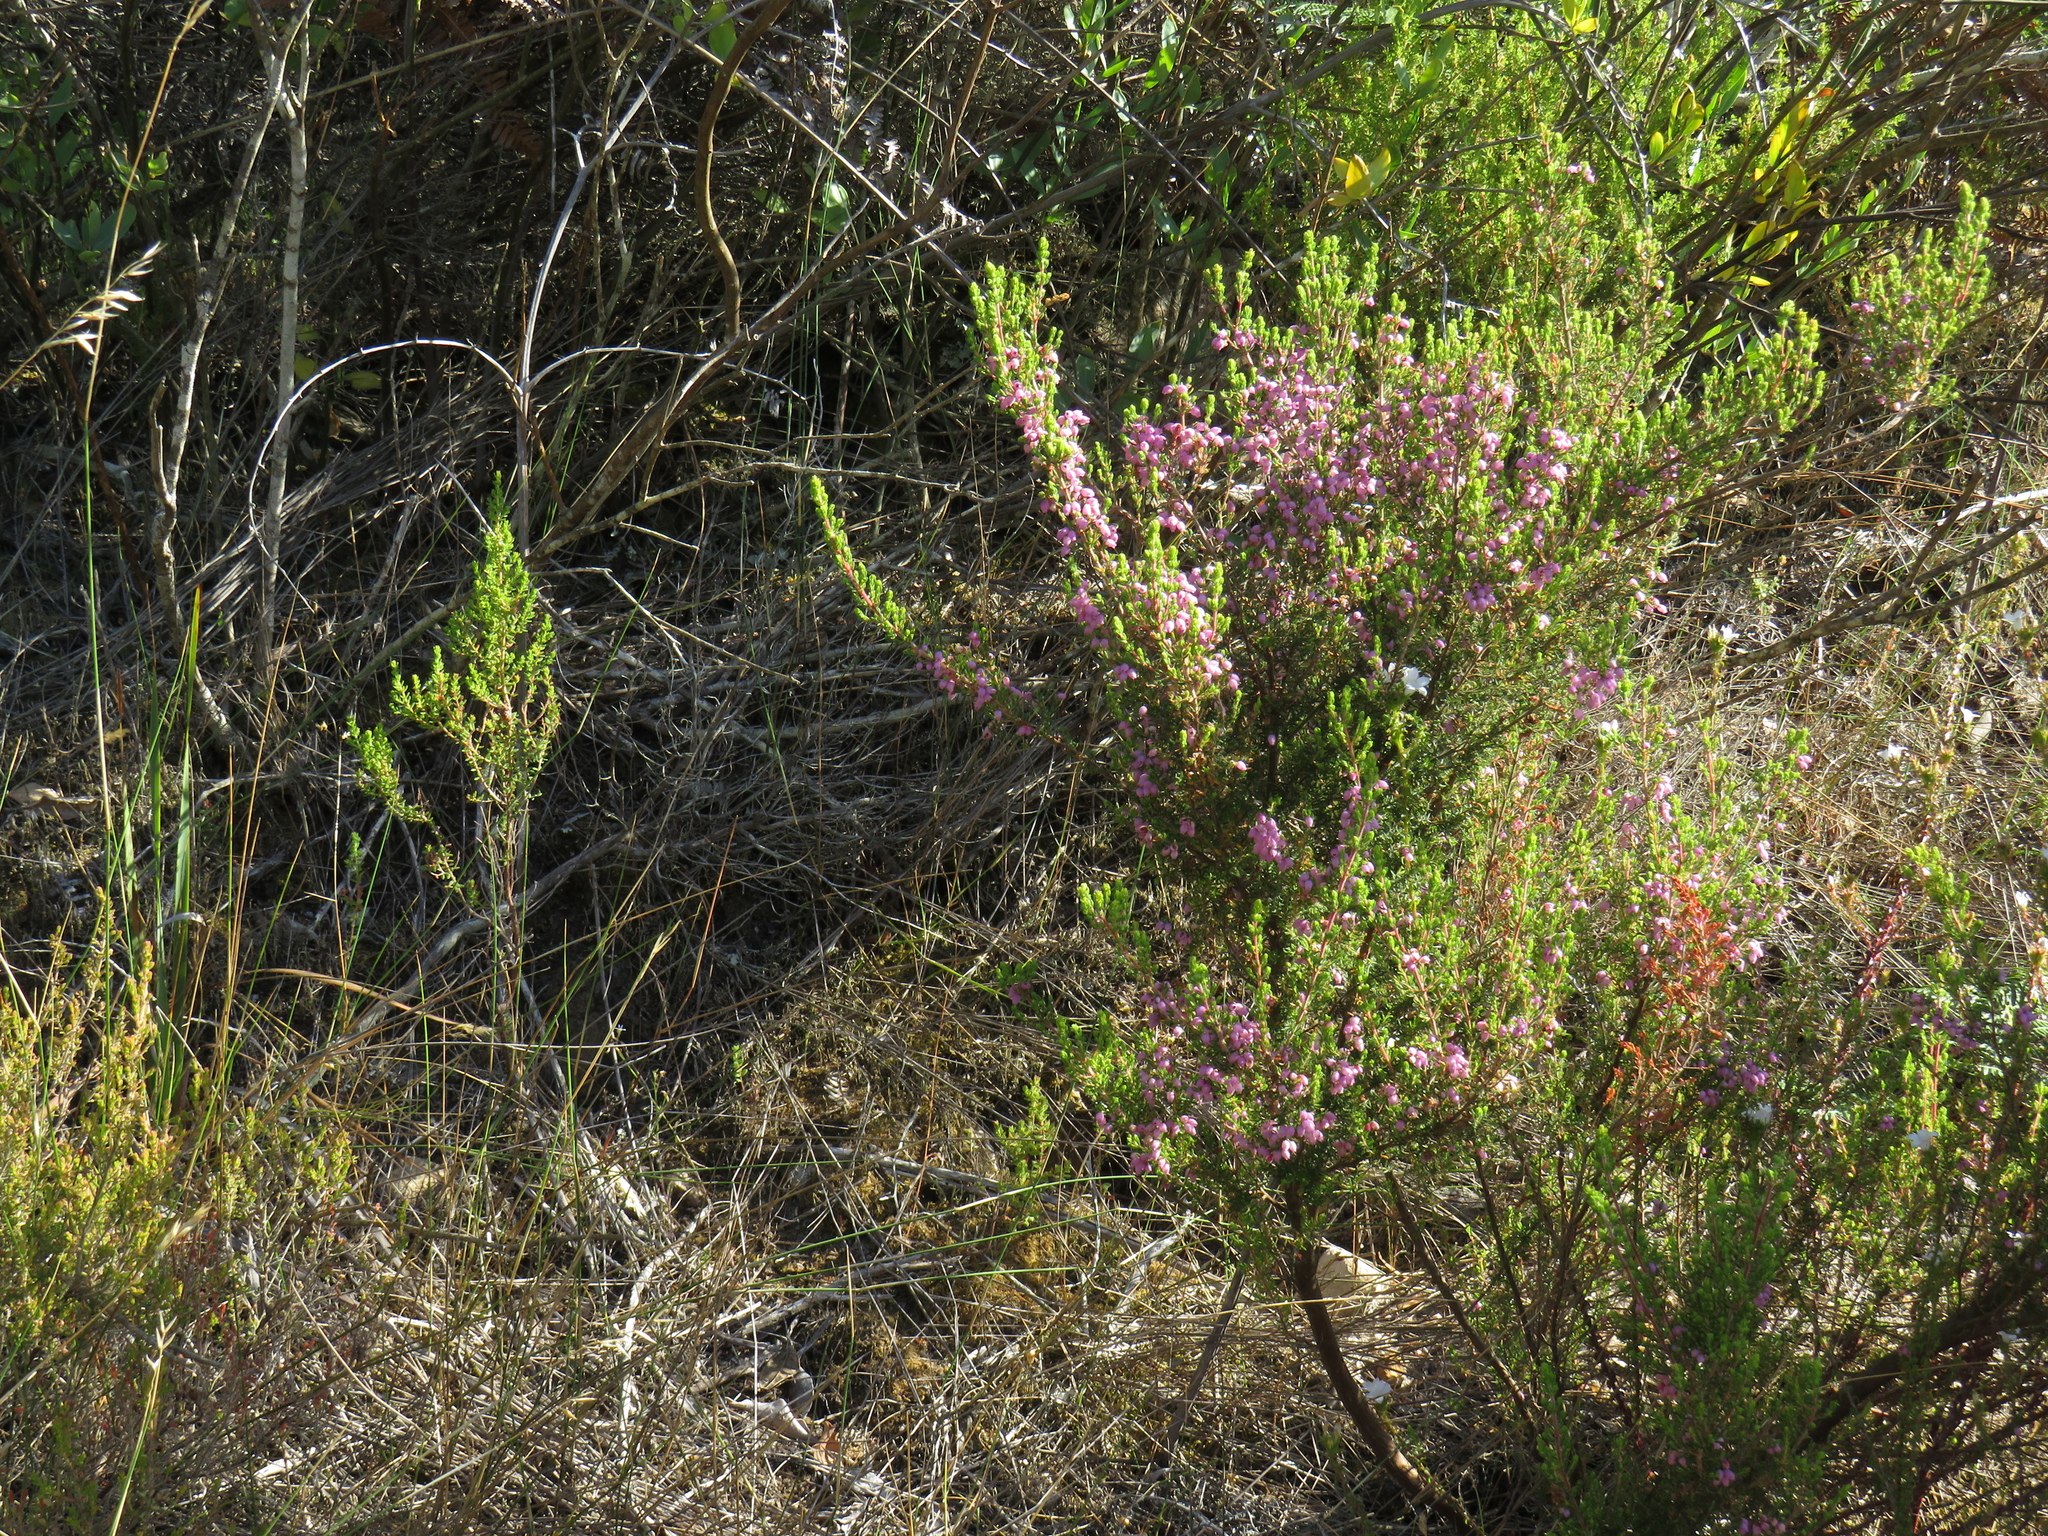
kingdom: Plantae
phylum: Tracheophyta
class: Magnoliopsida
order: Ericales
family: Ericaceae
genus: Erica
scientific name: Erica hirtiflora
